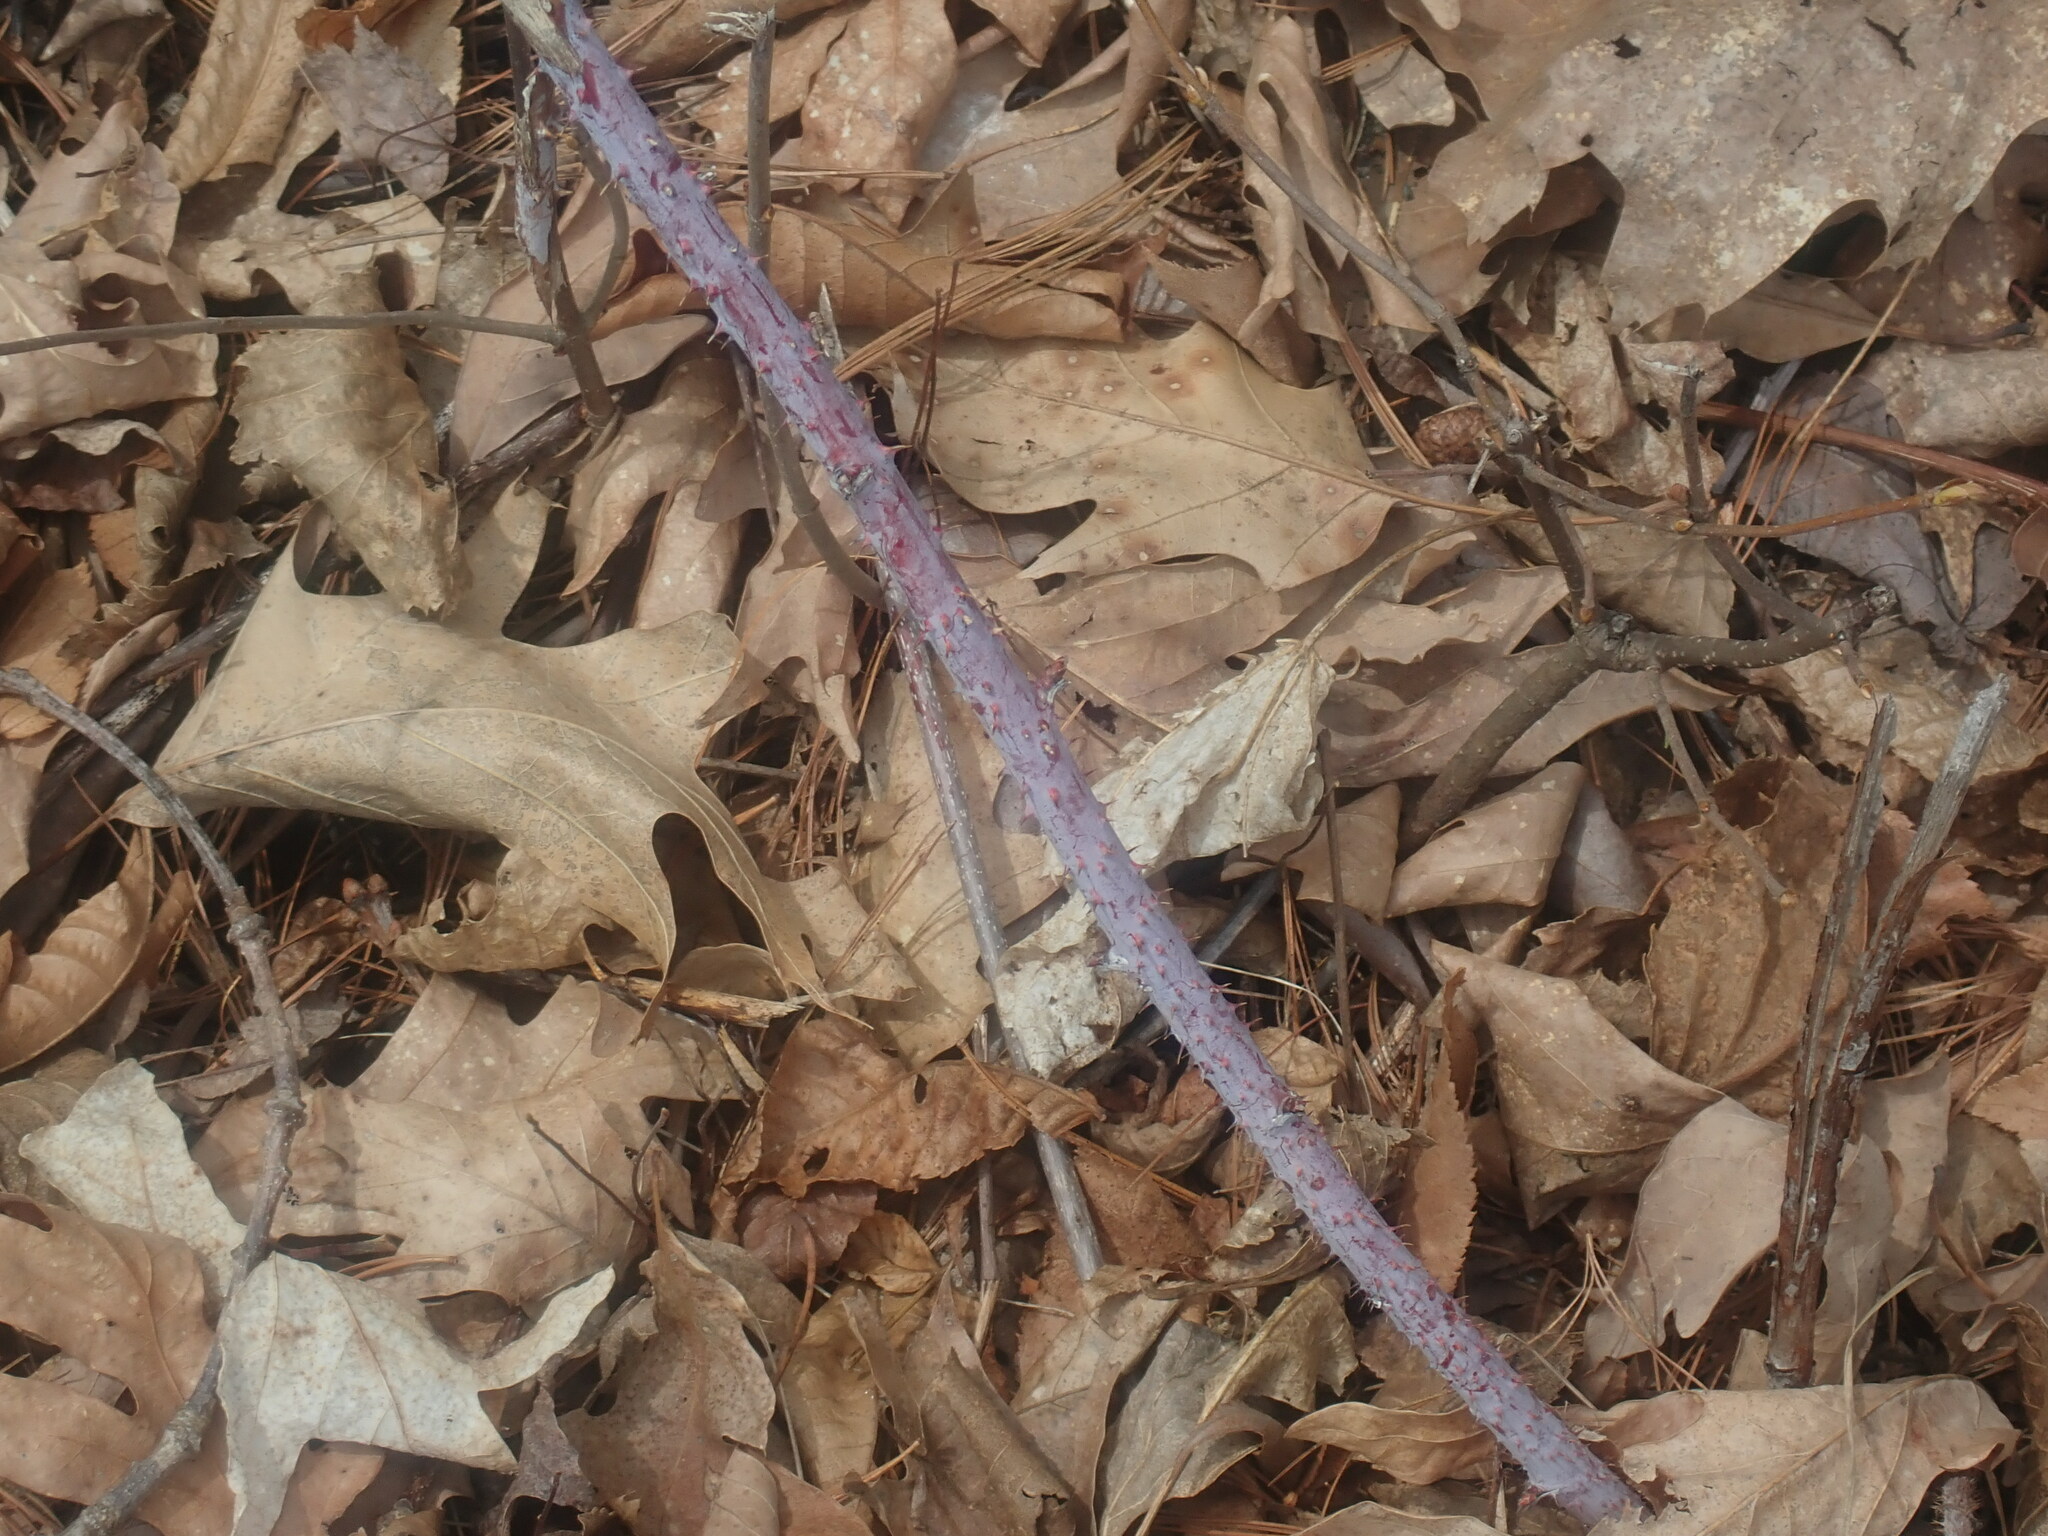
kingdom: Plantae
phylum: Tracheophyta
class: Magnoliopsida
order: Rosales
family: Rosaceae
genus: Rubus
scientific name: Rubus occidentalis
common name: Black raspberry
